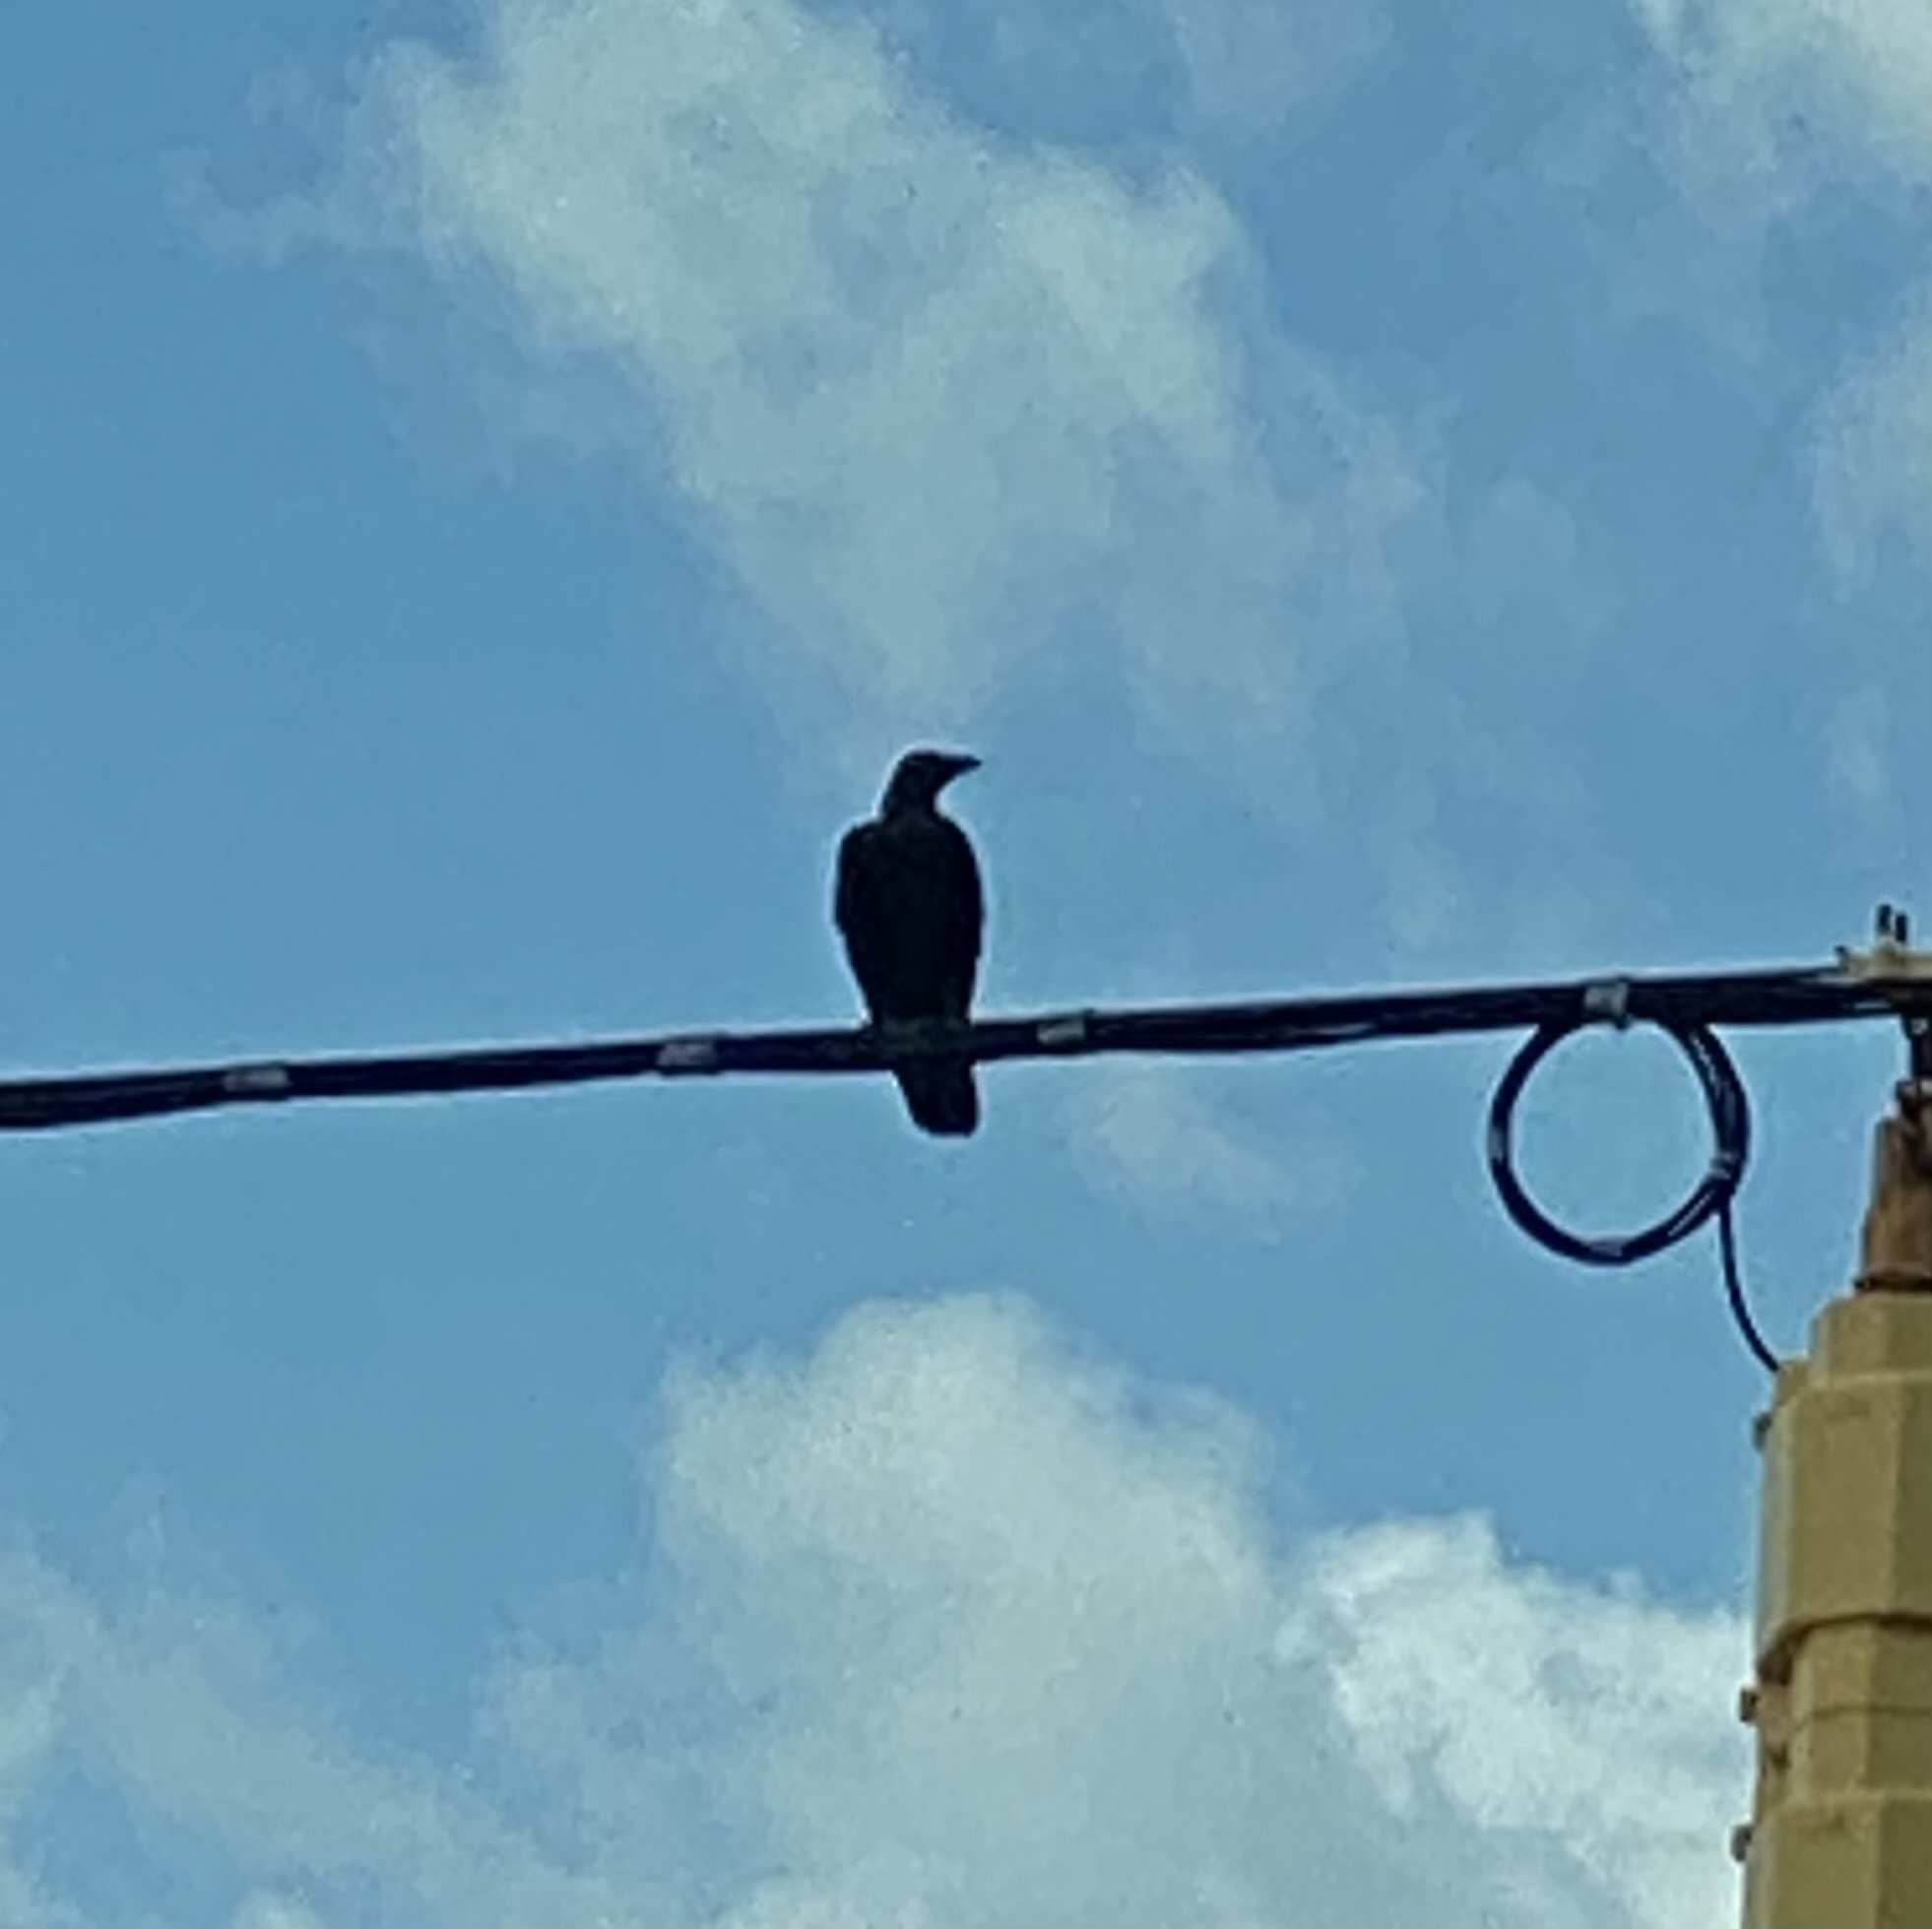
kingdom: Animalia
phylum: Chordata
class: Aves
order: Passeriformes
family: Corvidae
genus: Corvus
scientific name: Corvus
